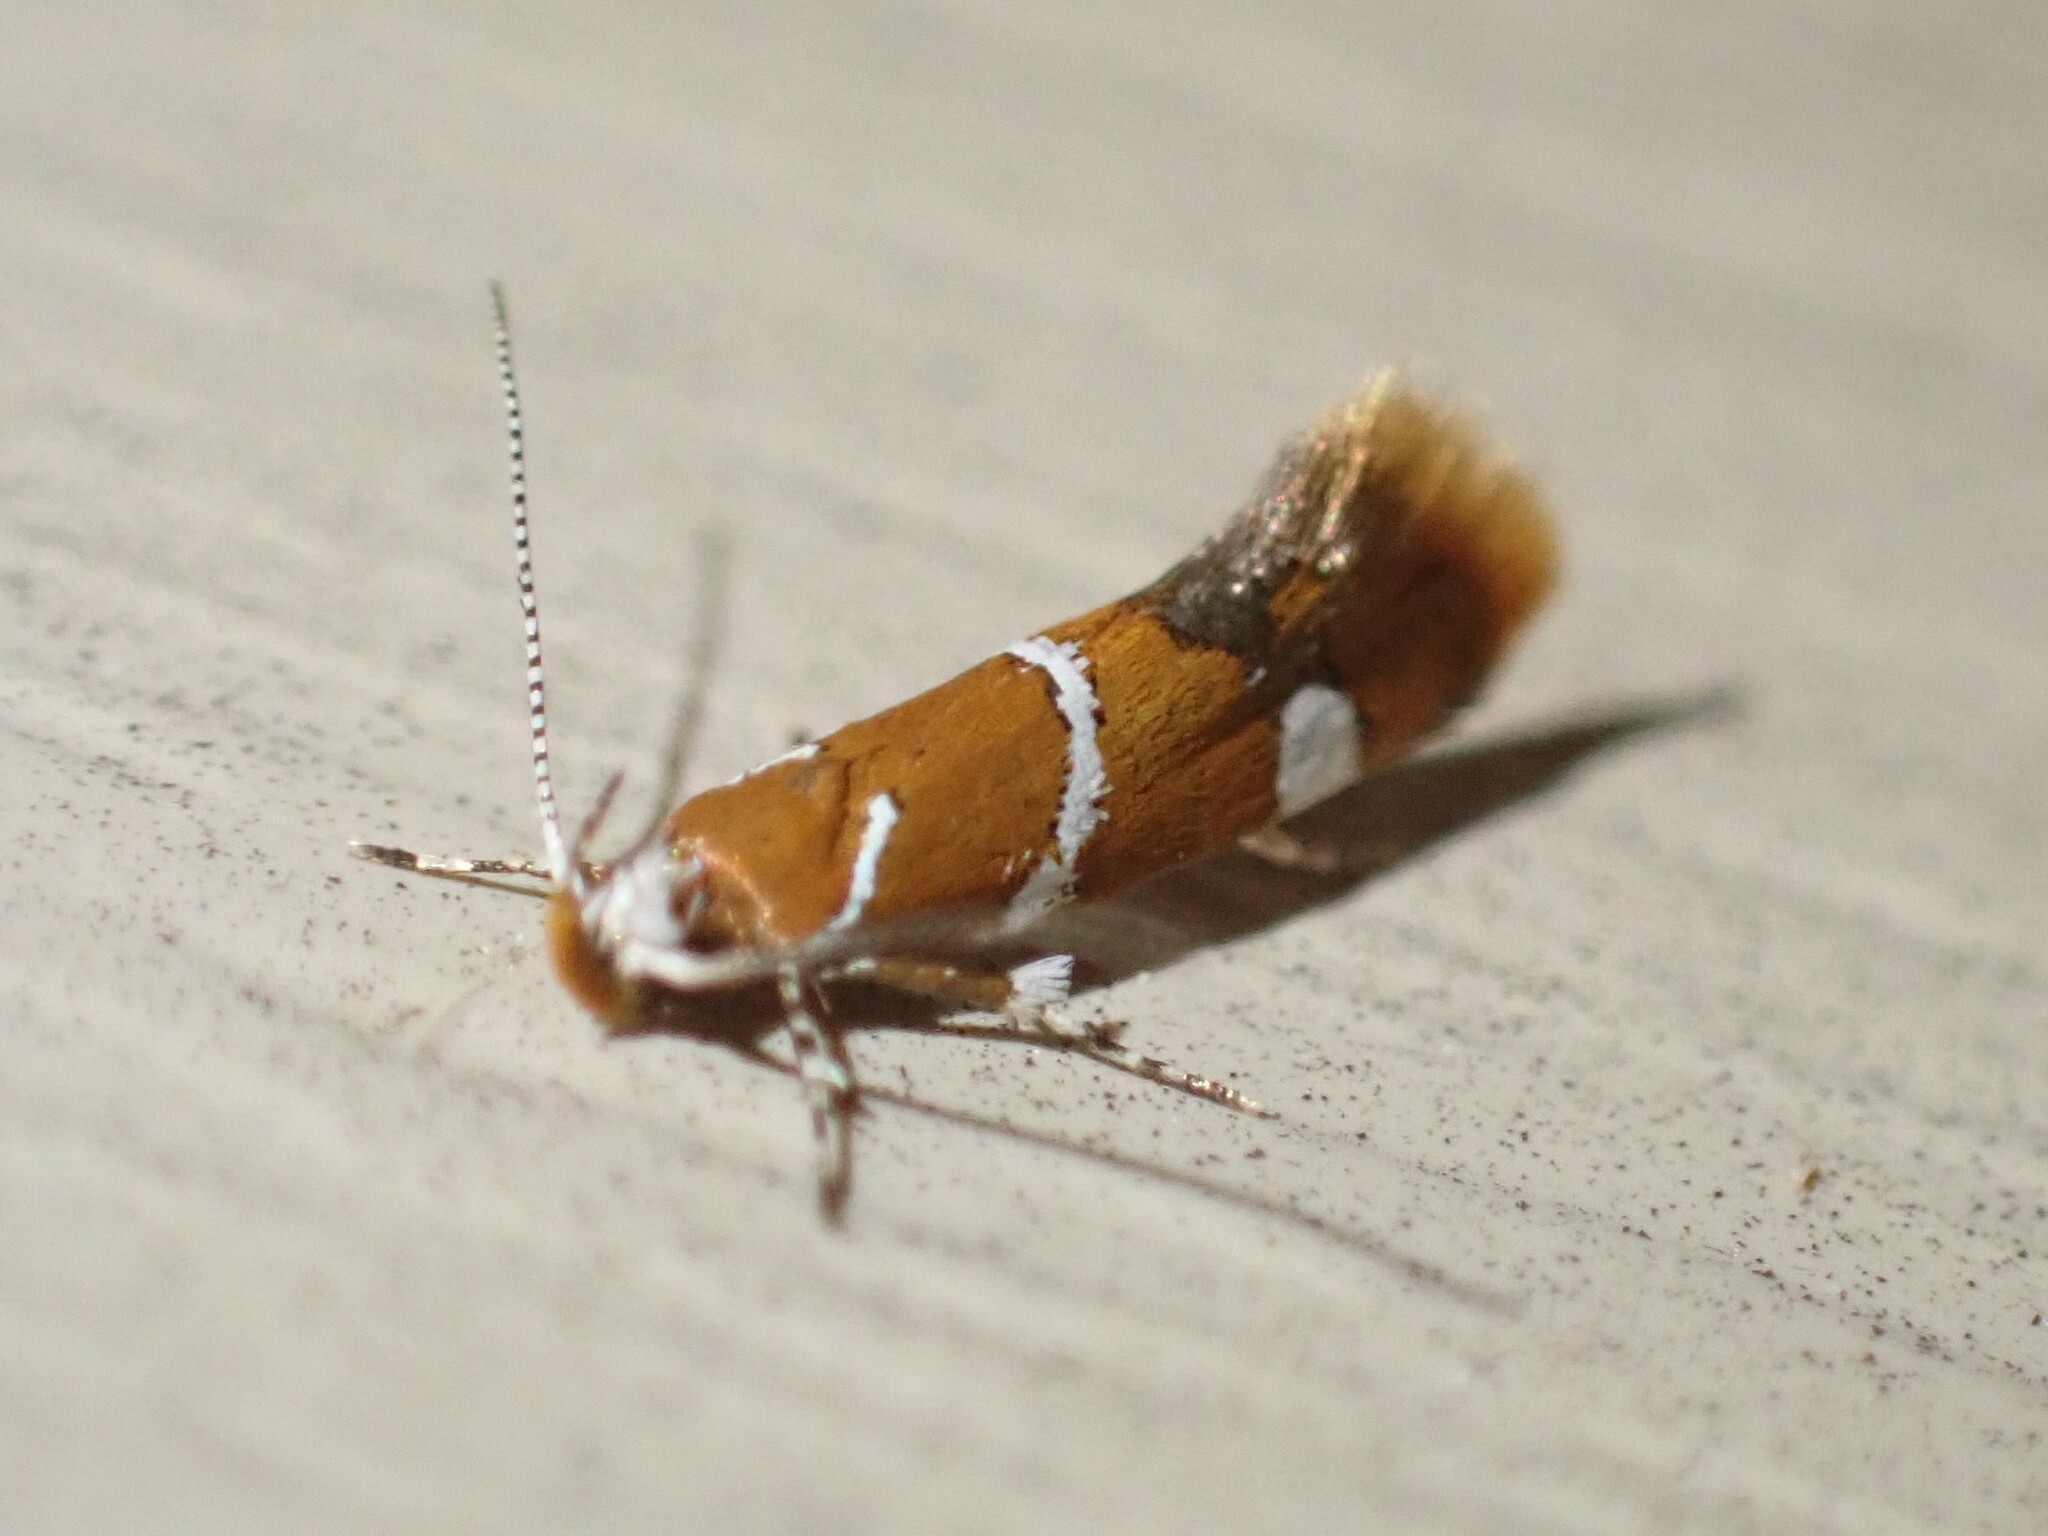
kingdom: Animalia
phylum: Arthropoda
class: Insecta
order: Lepidoptera
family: Oecophoridae
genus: Promalactis
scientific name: Promalactis suzukiella
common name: Moth
